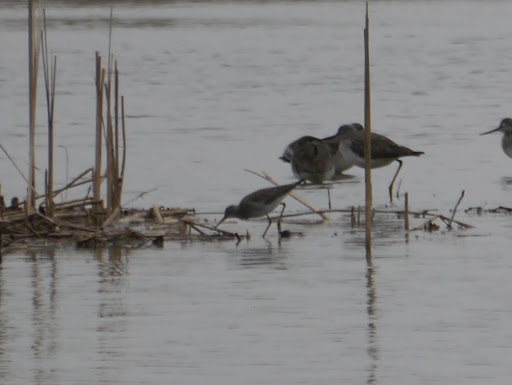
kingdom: Animalia
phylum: Chordata
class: Aves
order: Charadriiformes
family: Scolopacidae
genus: Tringa
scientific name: Tringa flavipes
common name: Lesser yellowlegs
